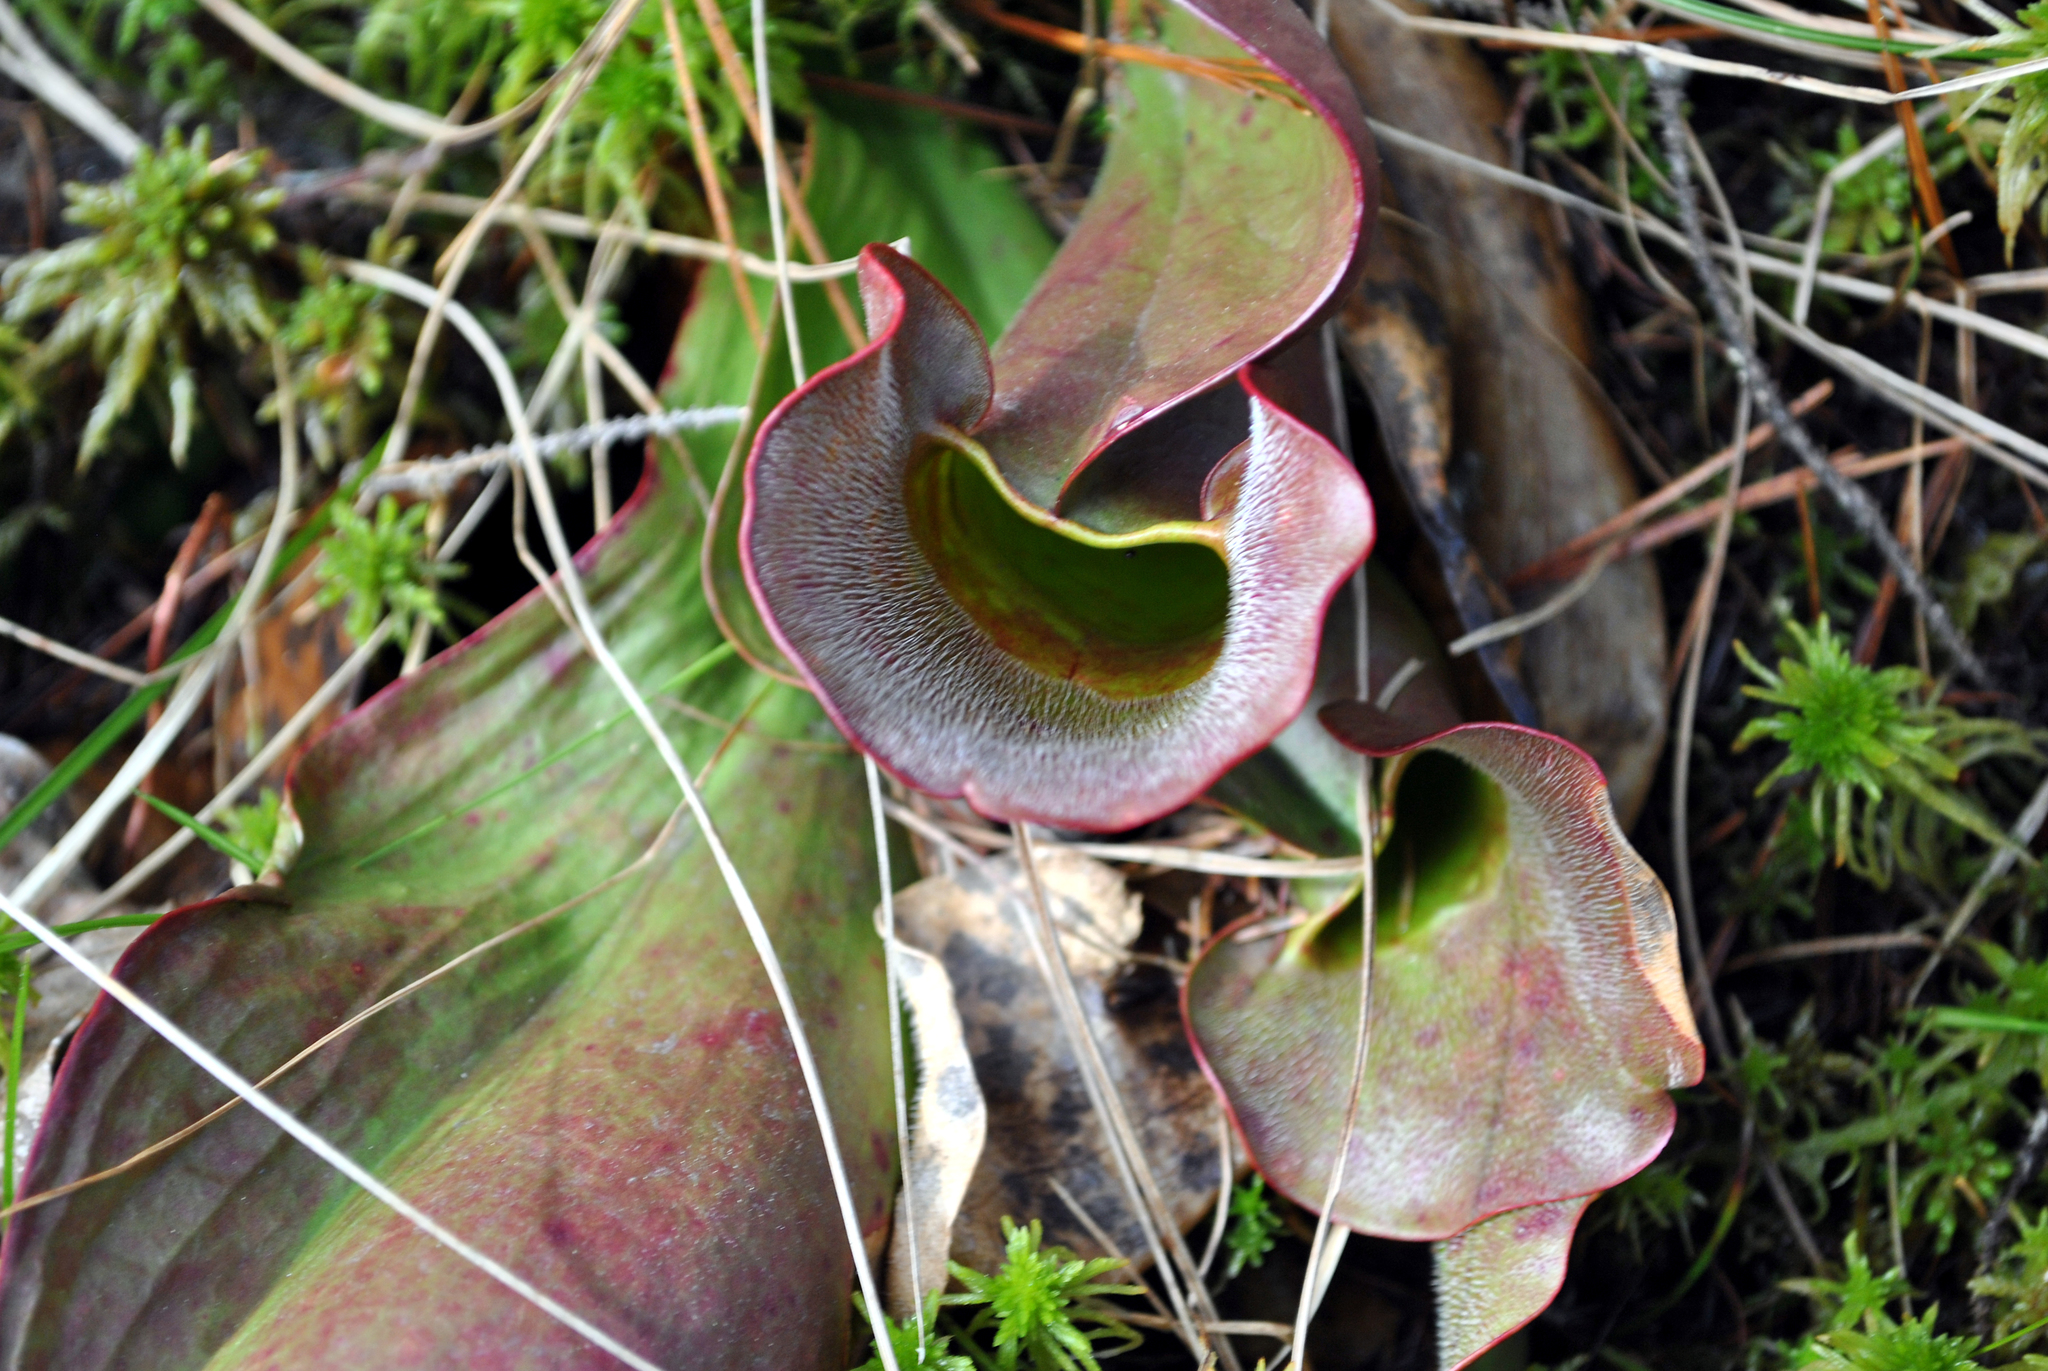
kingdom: Plantae
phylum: Tracheophyta
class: Magnoliopsida
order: Ericales
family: Sarraceniaceae
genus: Sarracenia
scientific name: Sarracenia purpurea
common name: Pitcherplant
